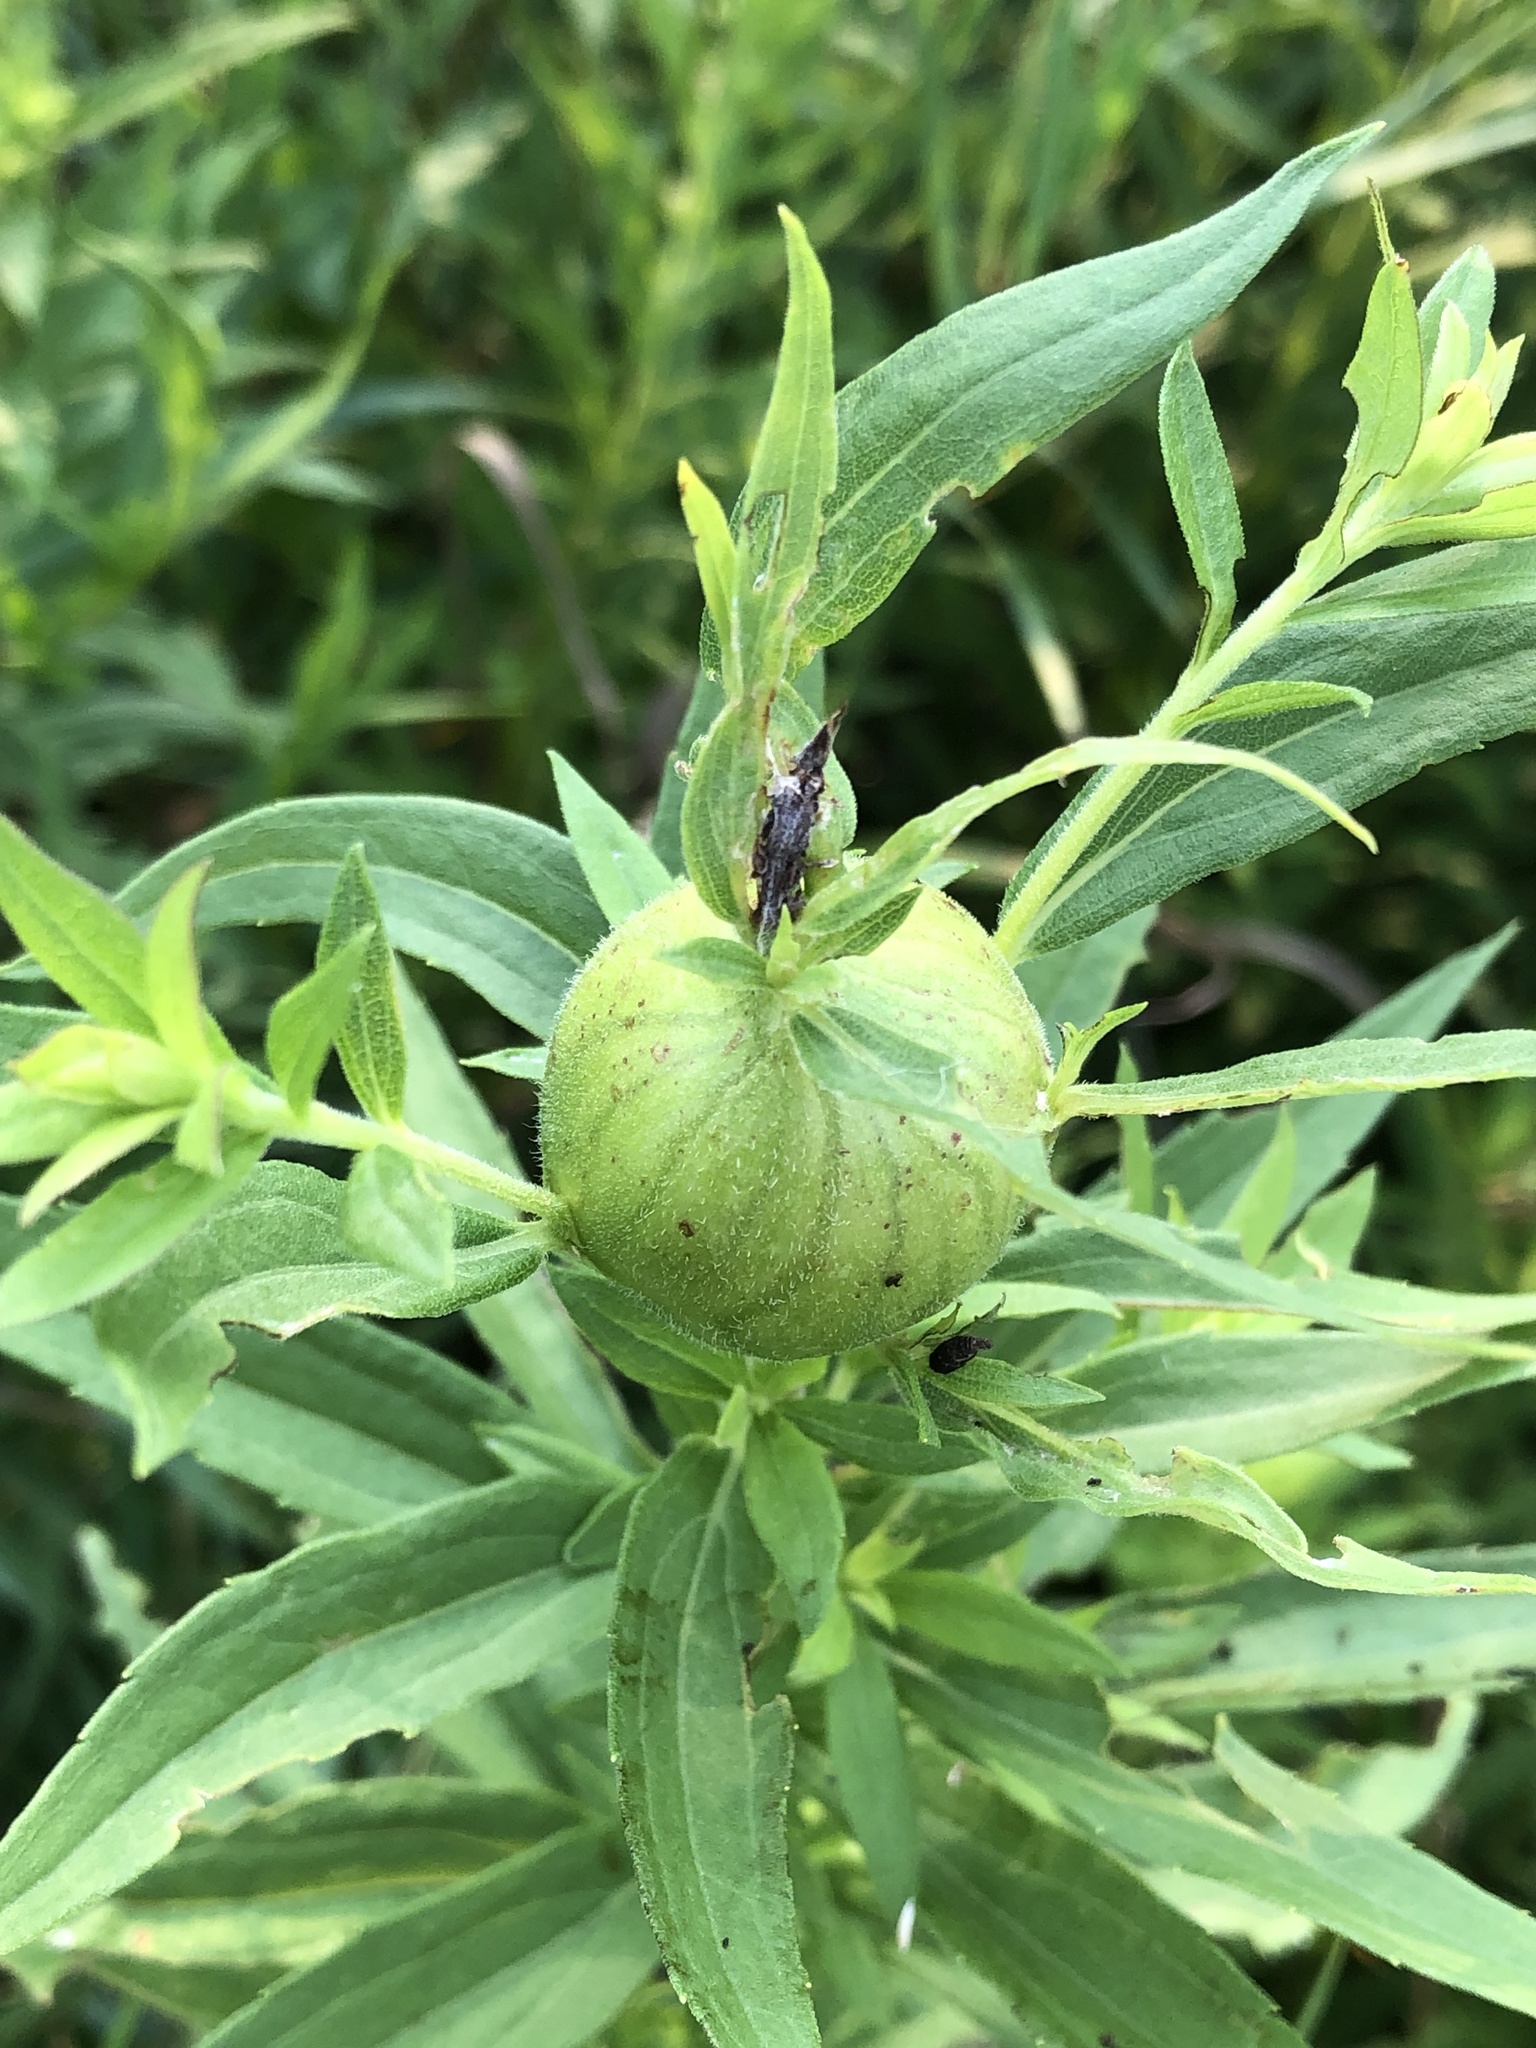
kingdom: Animalia
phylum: Arthropoda
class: Insecta
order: Diptera
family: Tephritidae
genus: Eurosta
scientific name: Eurosta solidaginis
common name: Goldenrod gall fly
